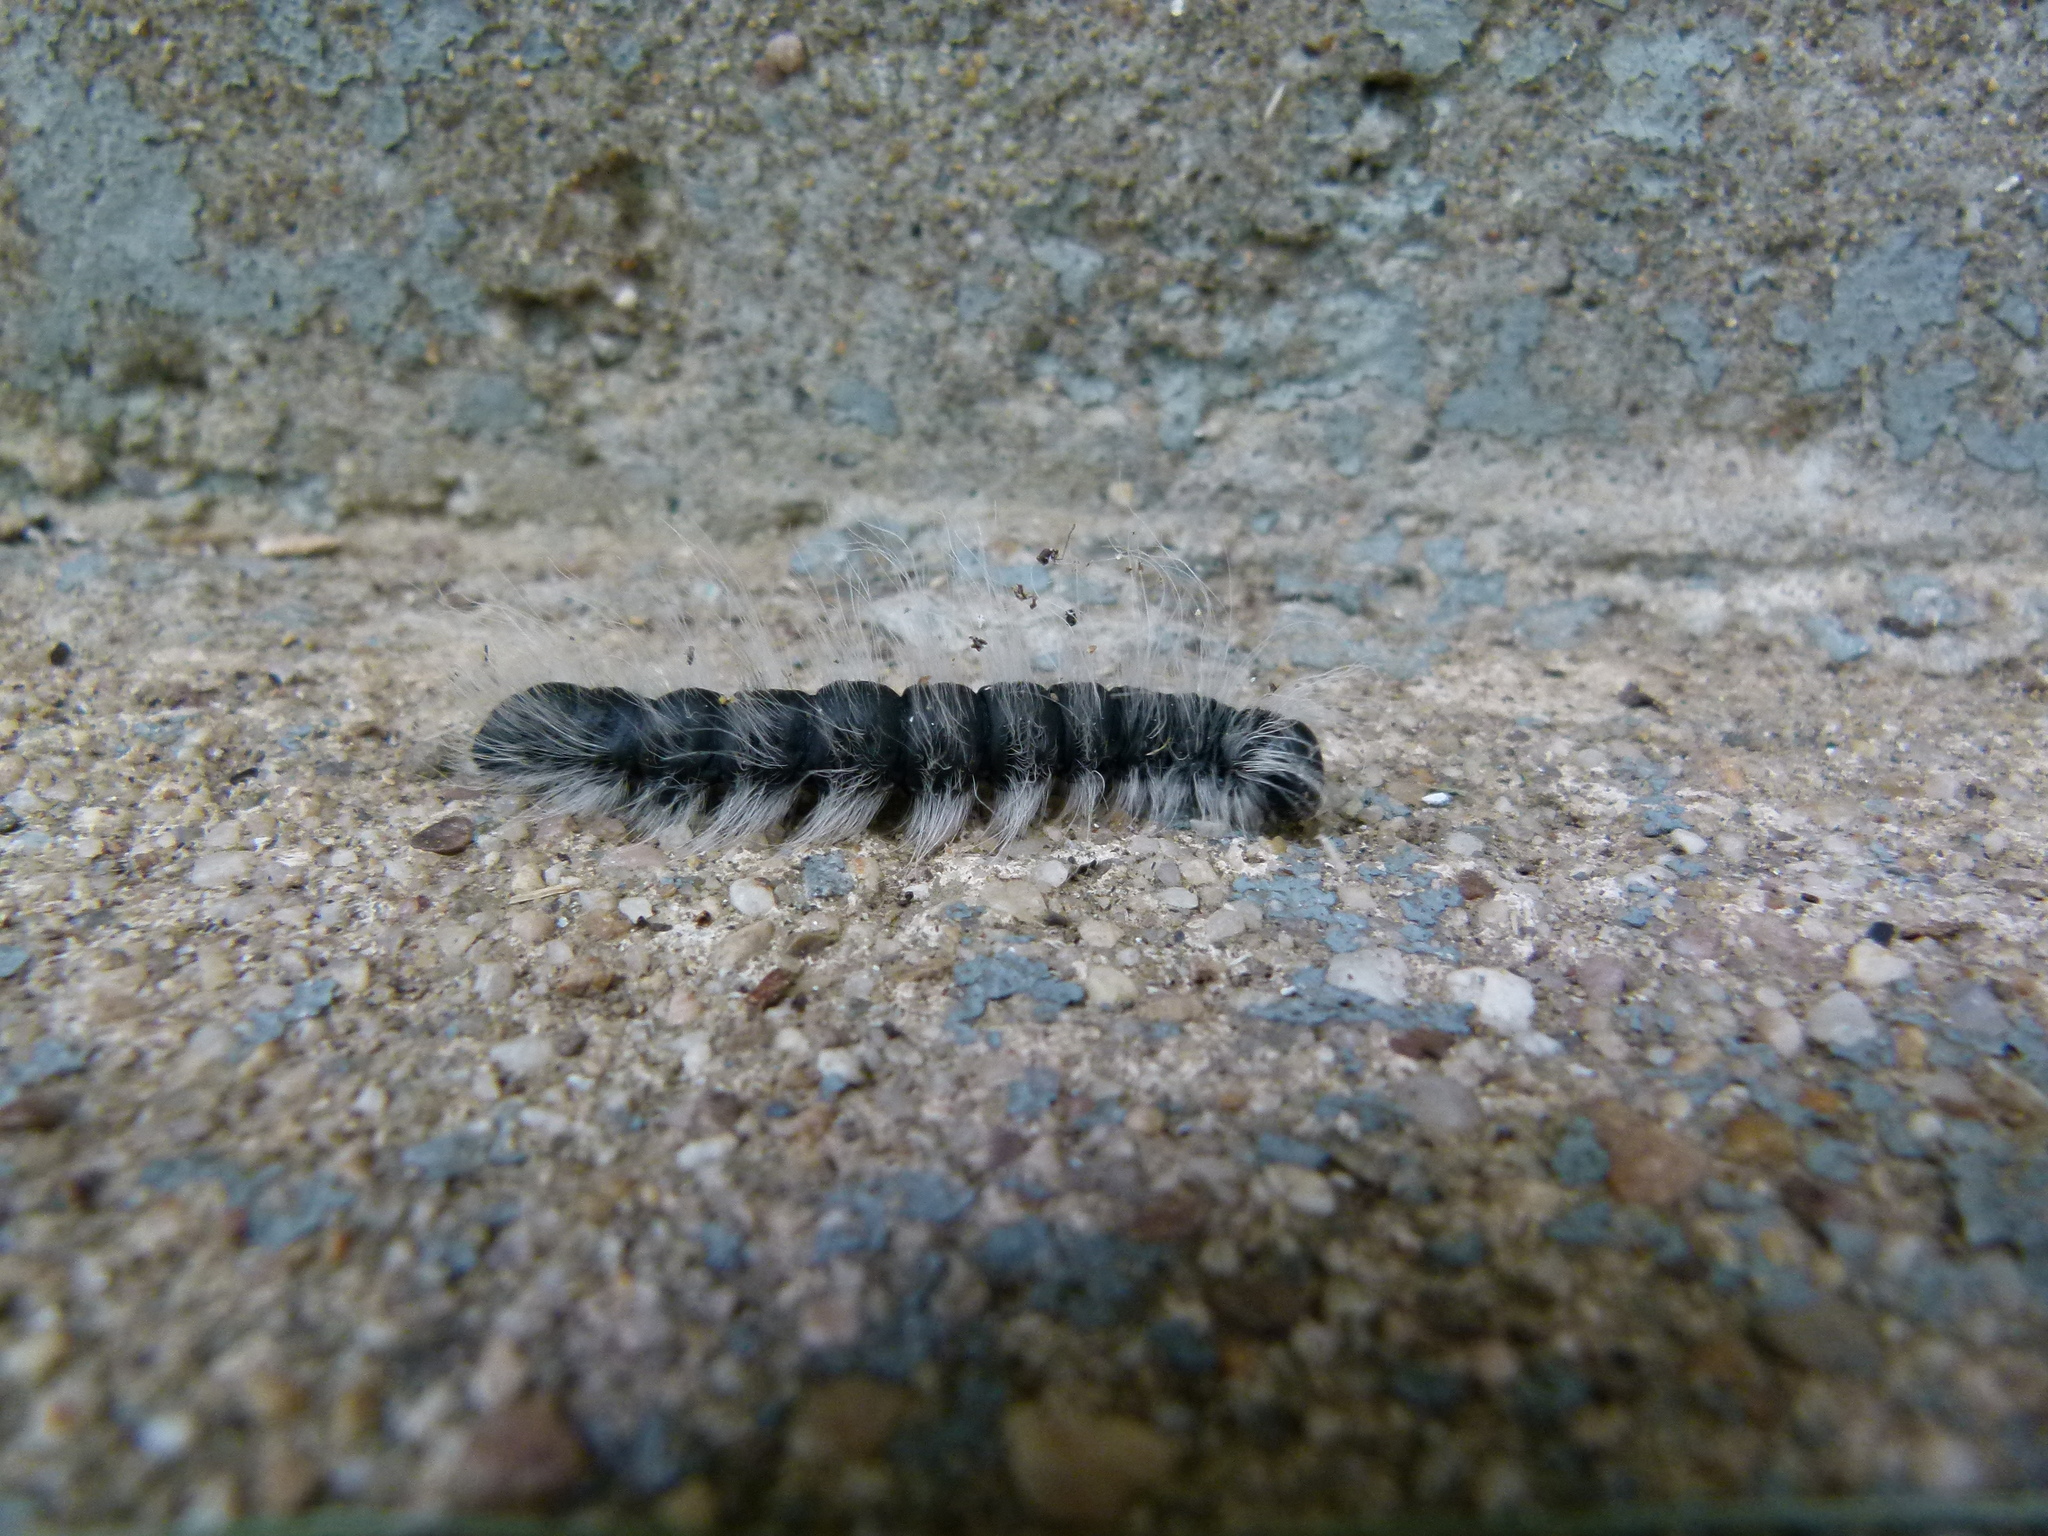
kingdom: Animalia
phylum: Arthropoda
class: Insecta
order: Lepidoptera
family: Notodontidae
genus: Datana
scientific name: Datana integerrima
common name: Walnut caterpillar
